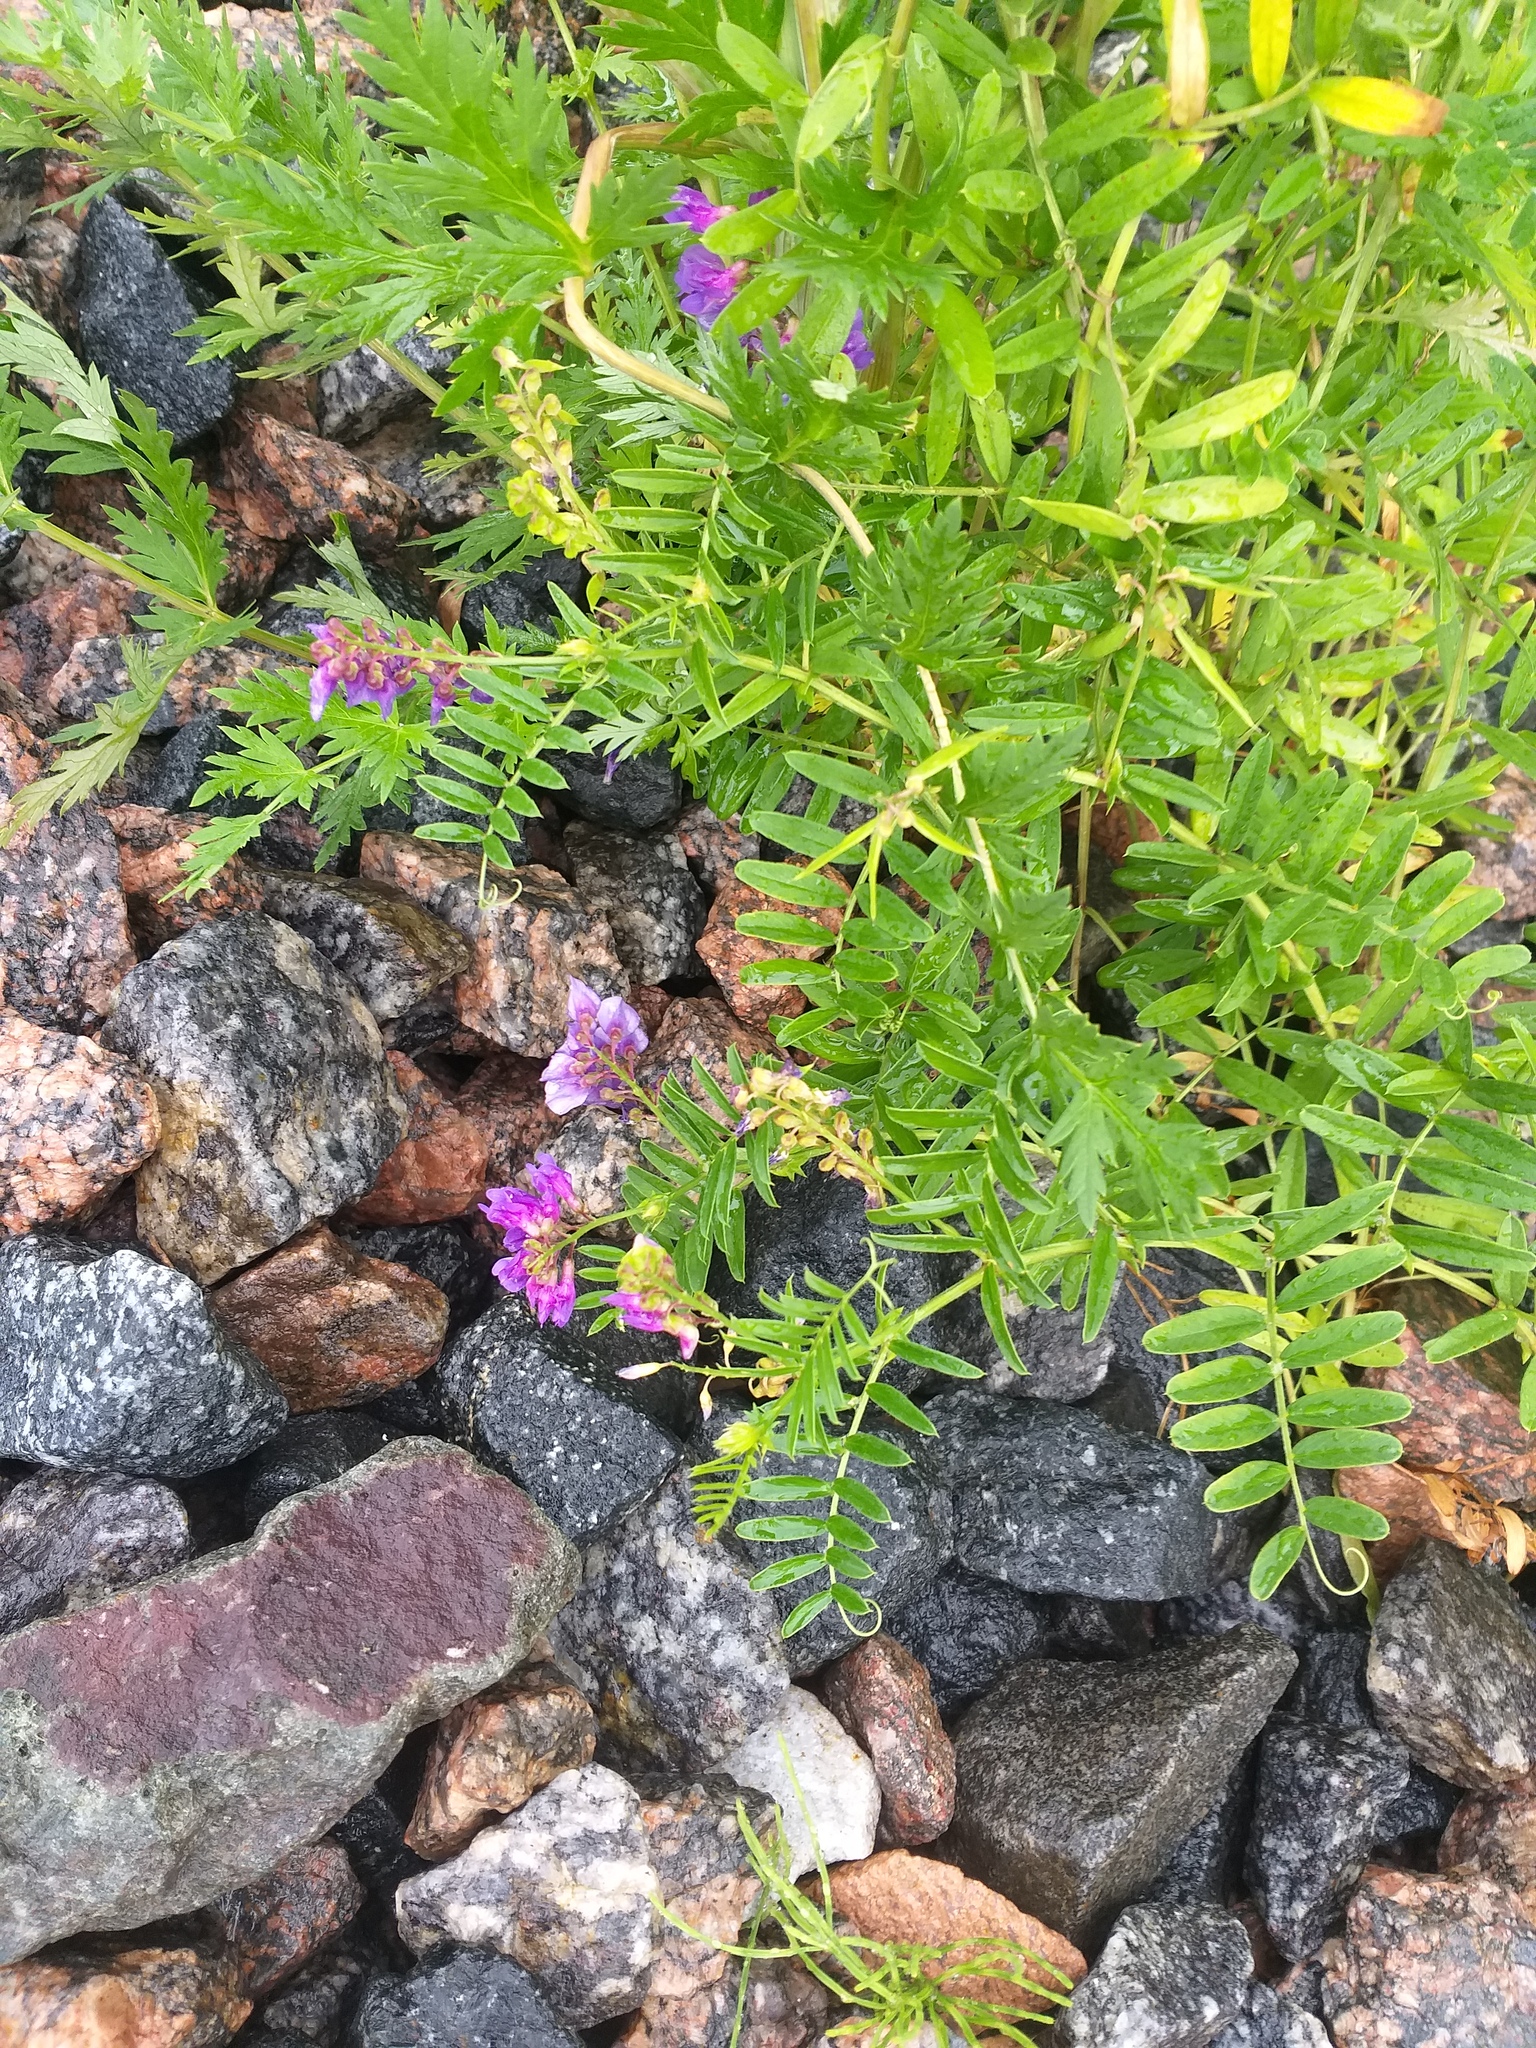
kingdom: Plantae
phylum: Tracheophyta
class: Magnoliopsida
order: Fabales
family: Fabaceae
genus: Vicia
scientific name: Vicia amoena
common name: Cheder ebs
